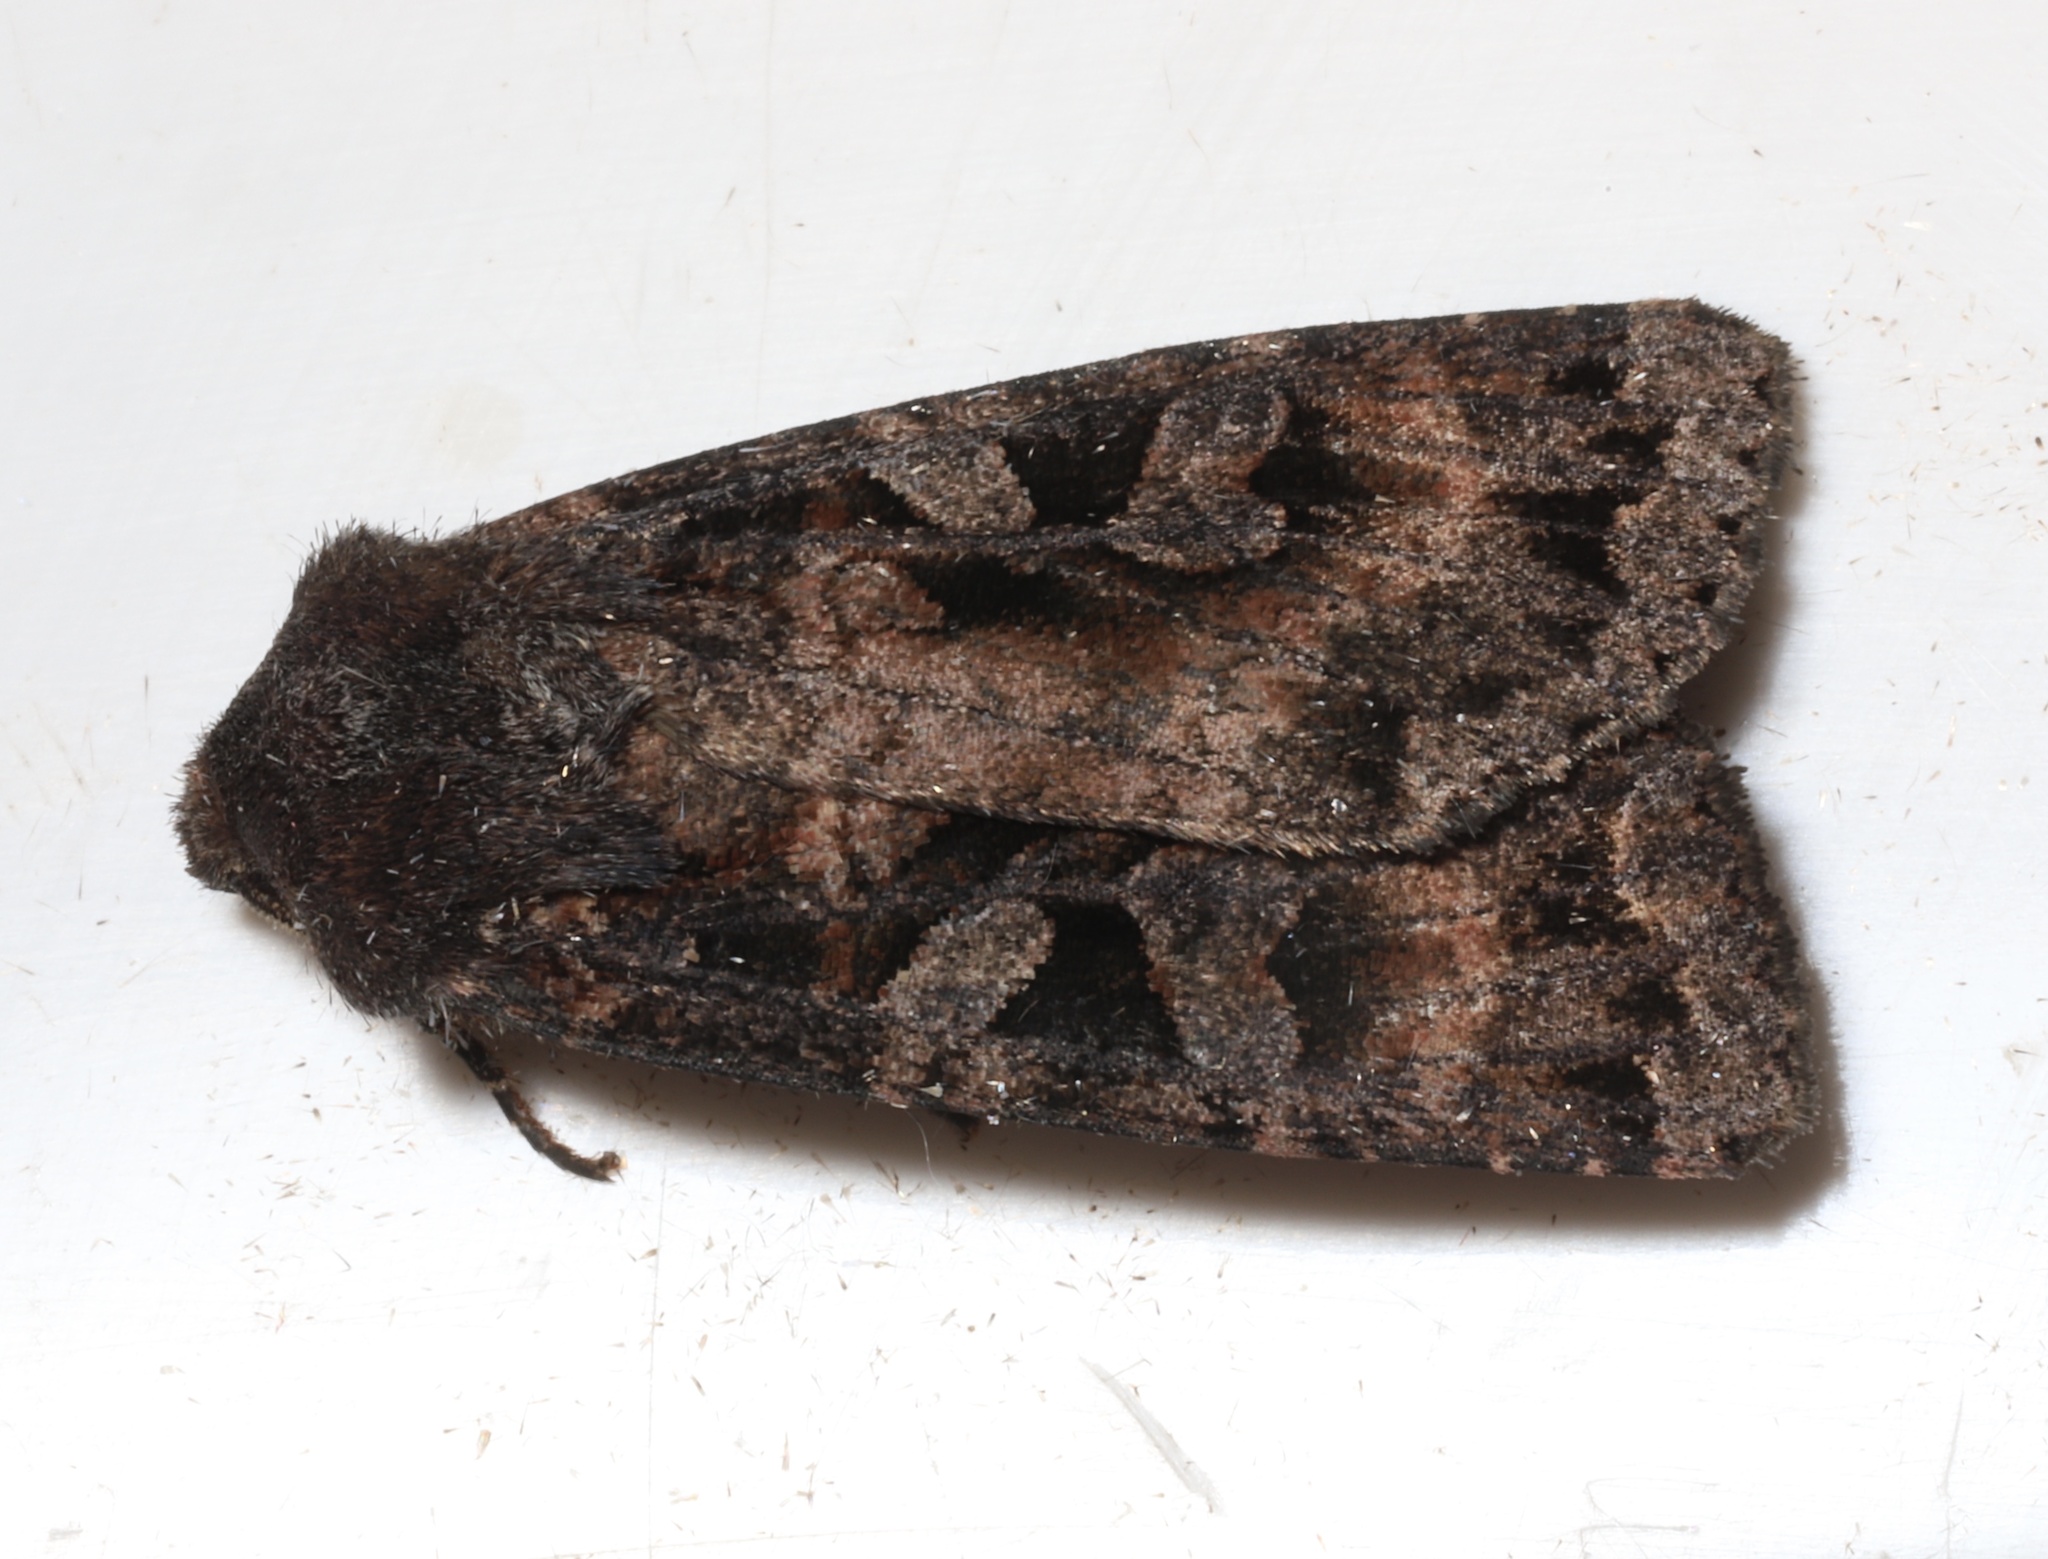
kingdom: Animalia
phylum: Arthropoda
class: Insecta
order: Lepidoptera
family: Noctuidae
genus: Eurois
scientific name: Eurois astricta
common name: Great brown dart
